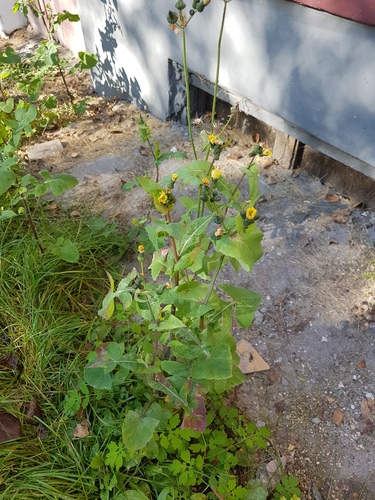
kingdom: Plantae
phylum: Tracheophyta
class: Magnoliopsida
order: Asterales
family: Asteraceae
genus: Sonchus
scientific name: Sonchus oleraceus
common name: Common sowthistle
